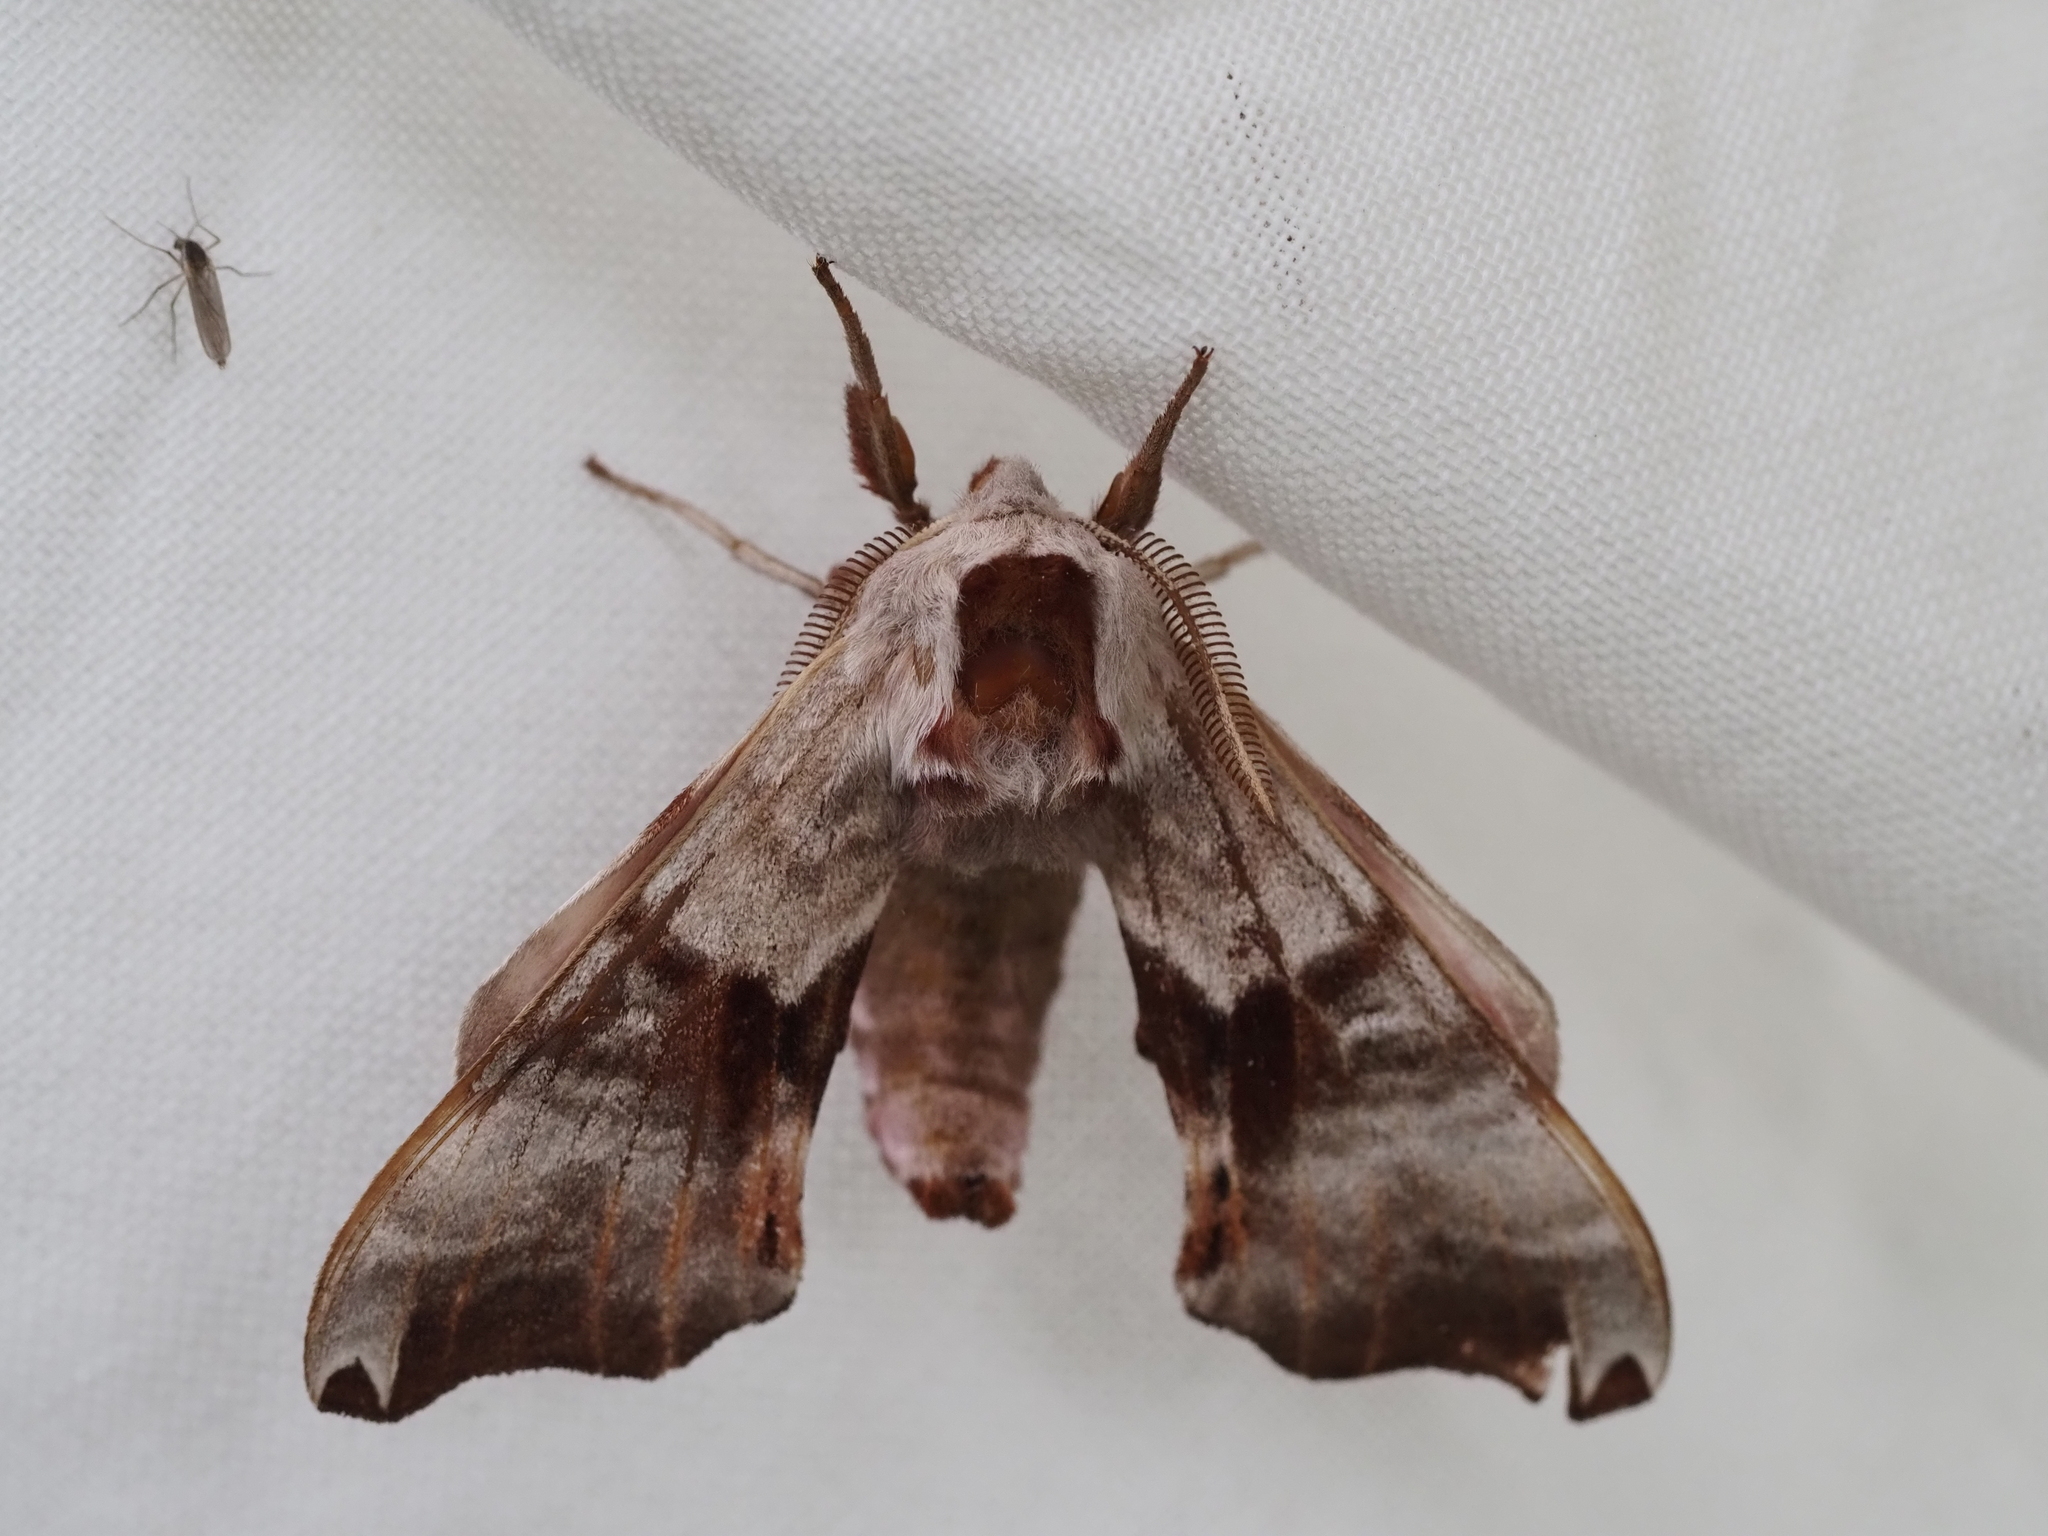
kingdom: Animalia
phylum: Arthropoda
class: Insecta
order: Lepidoptera
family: Sphingidae
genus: Smerinthus
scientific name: Smerinthus jamaicensis
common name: Twin spotted sphinx
